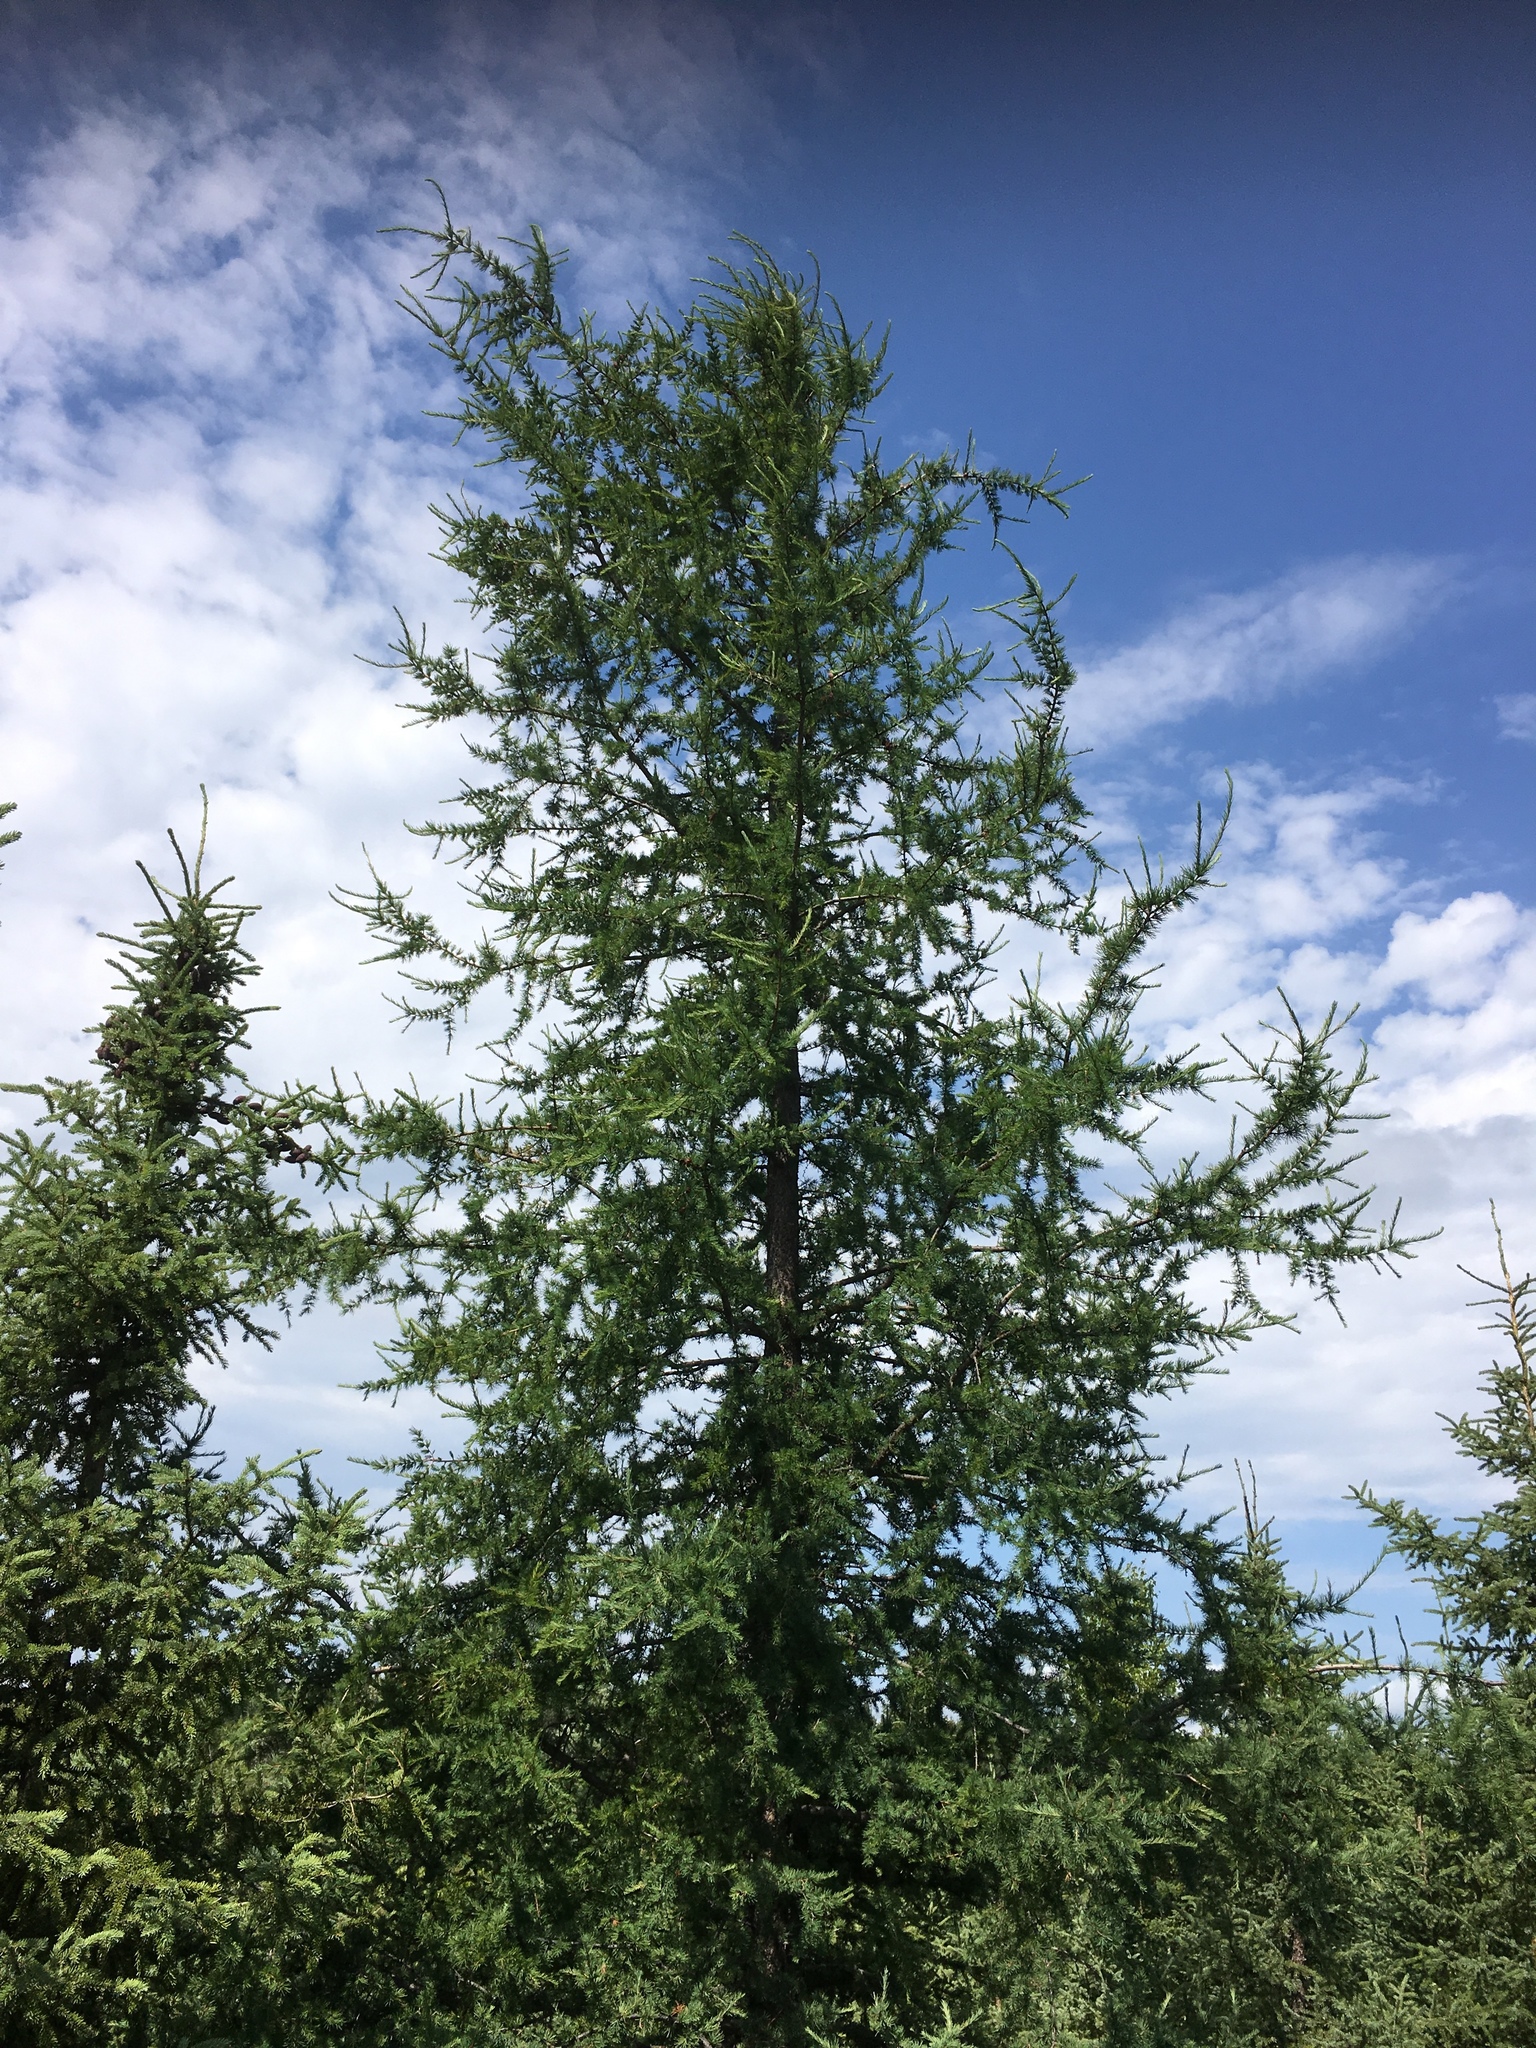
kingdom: Plantae
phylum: Tracheophyta
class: Pinopsida
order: Pinales
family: Pinaceae
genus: Larix
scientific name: Larix laricina
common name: American larch
